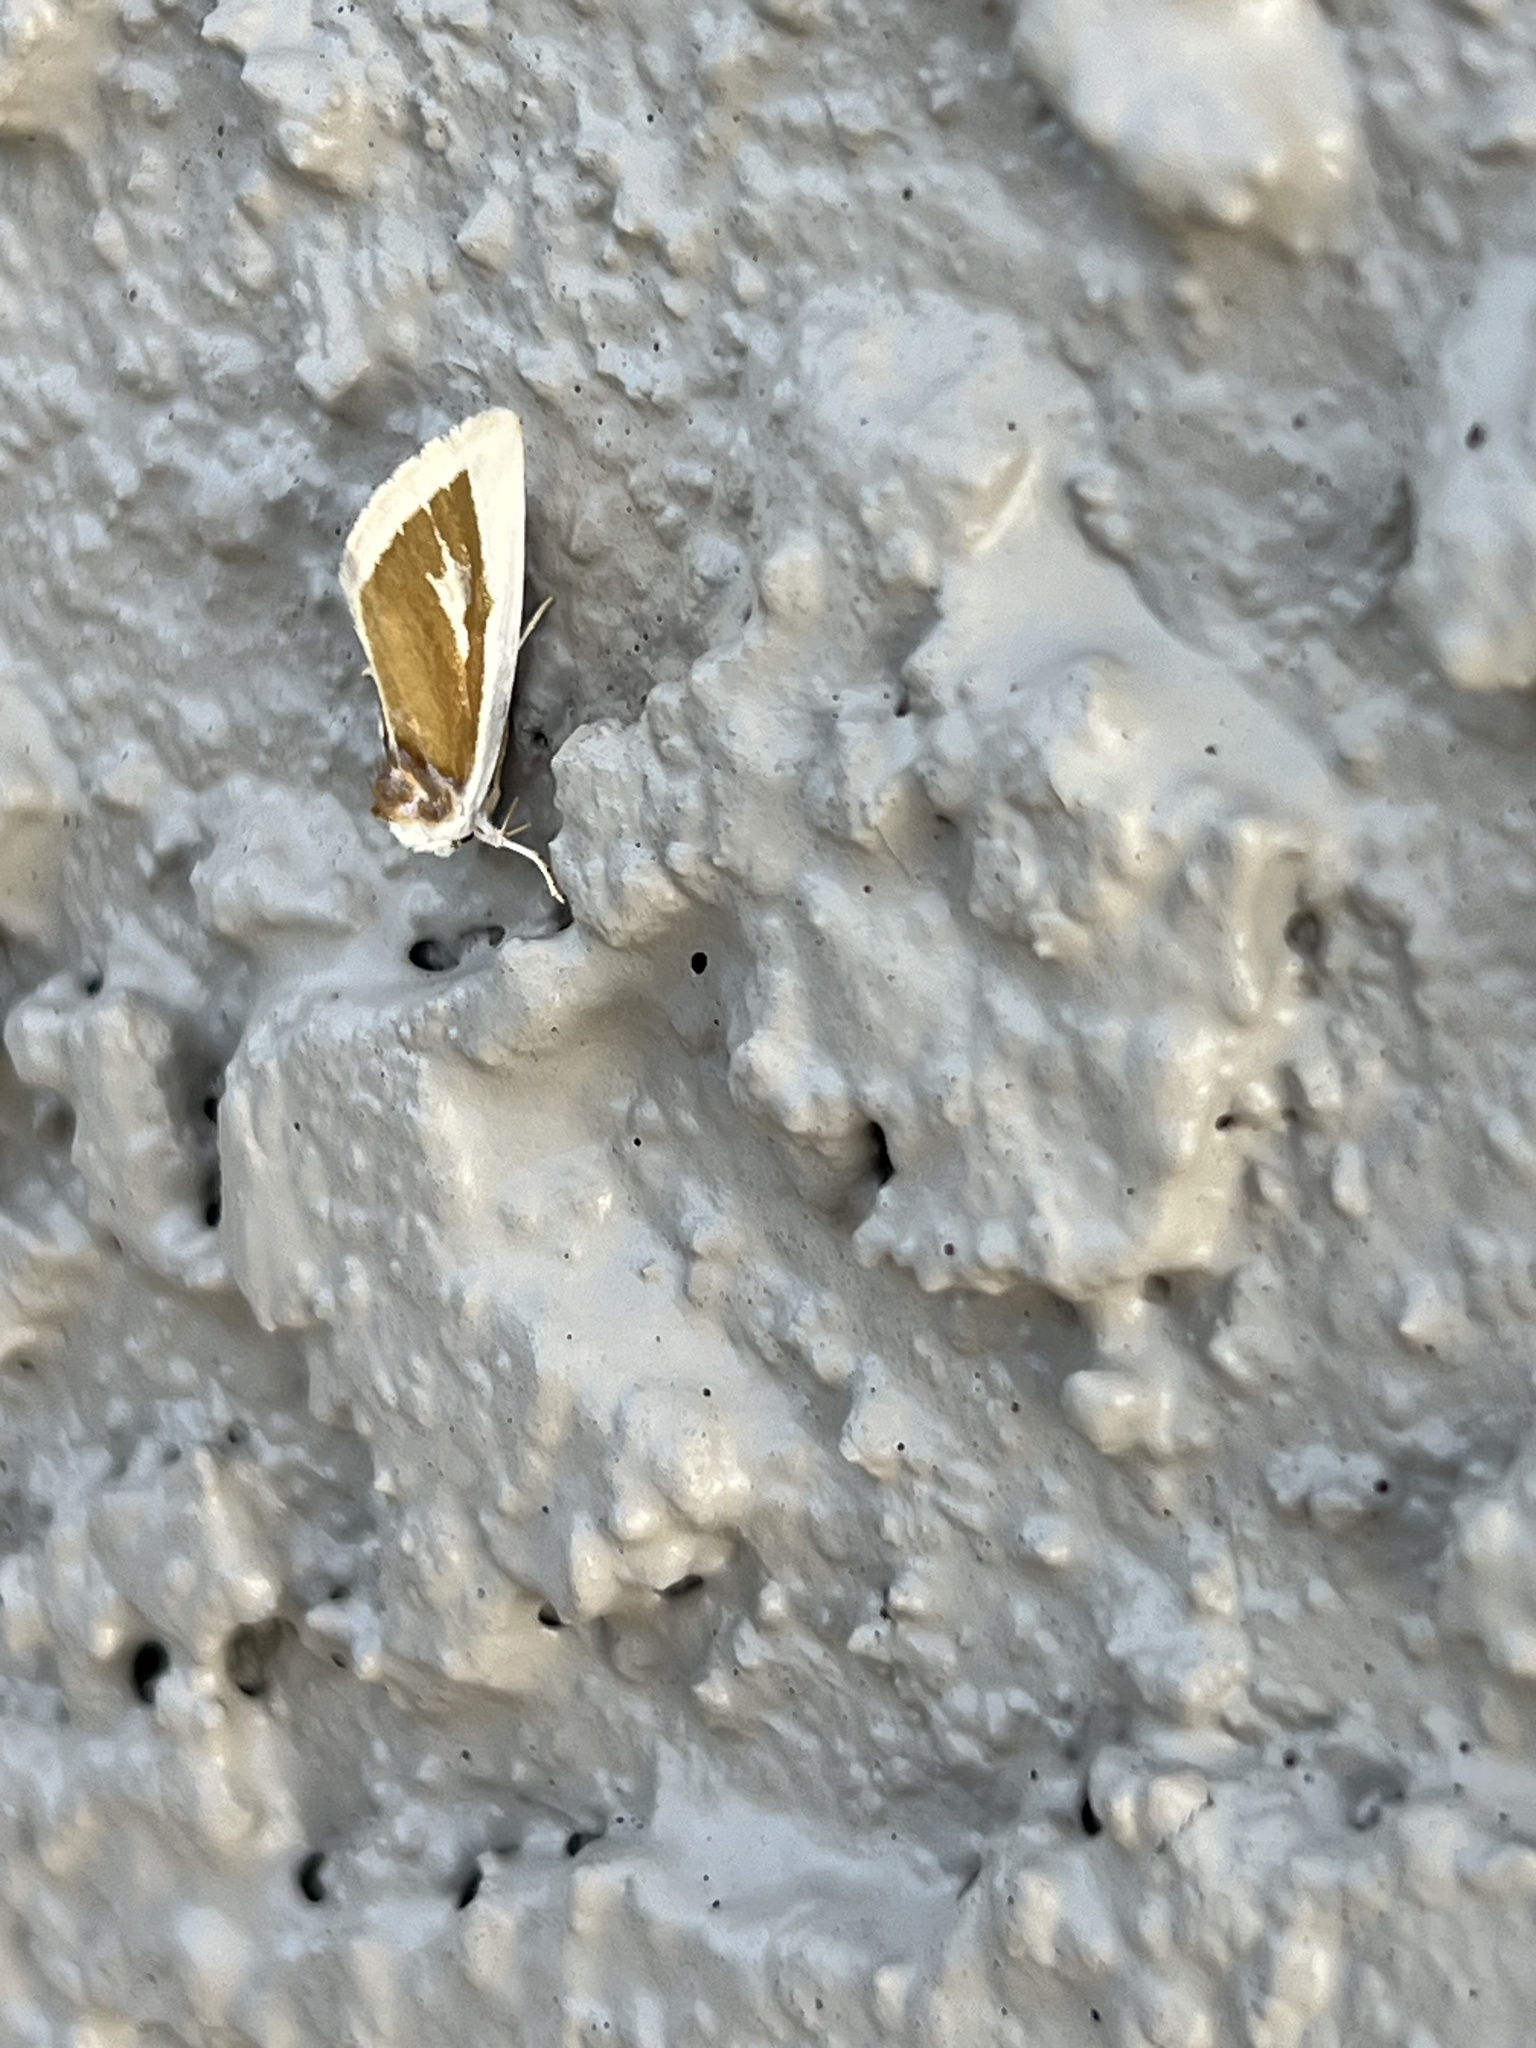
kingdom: Animalia
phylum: Arthropoda
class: Insecta
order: Lepidoptera
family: Noctuidae
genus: Neumoegenia
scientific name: Neumoegenia poetica
